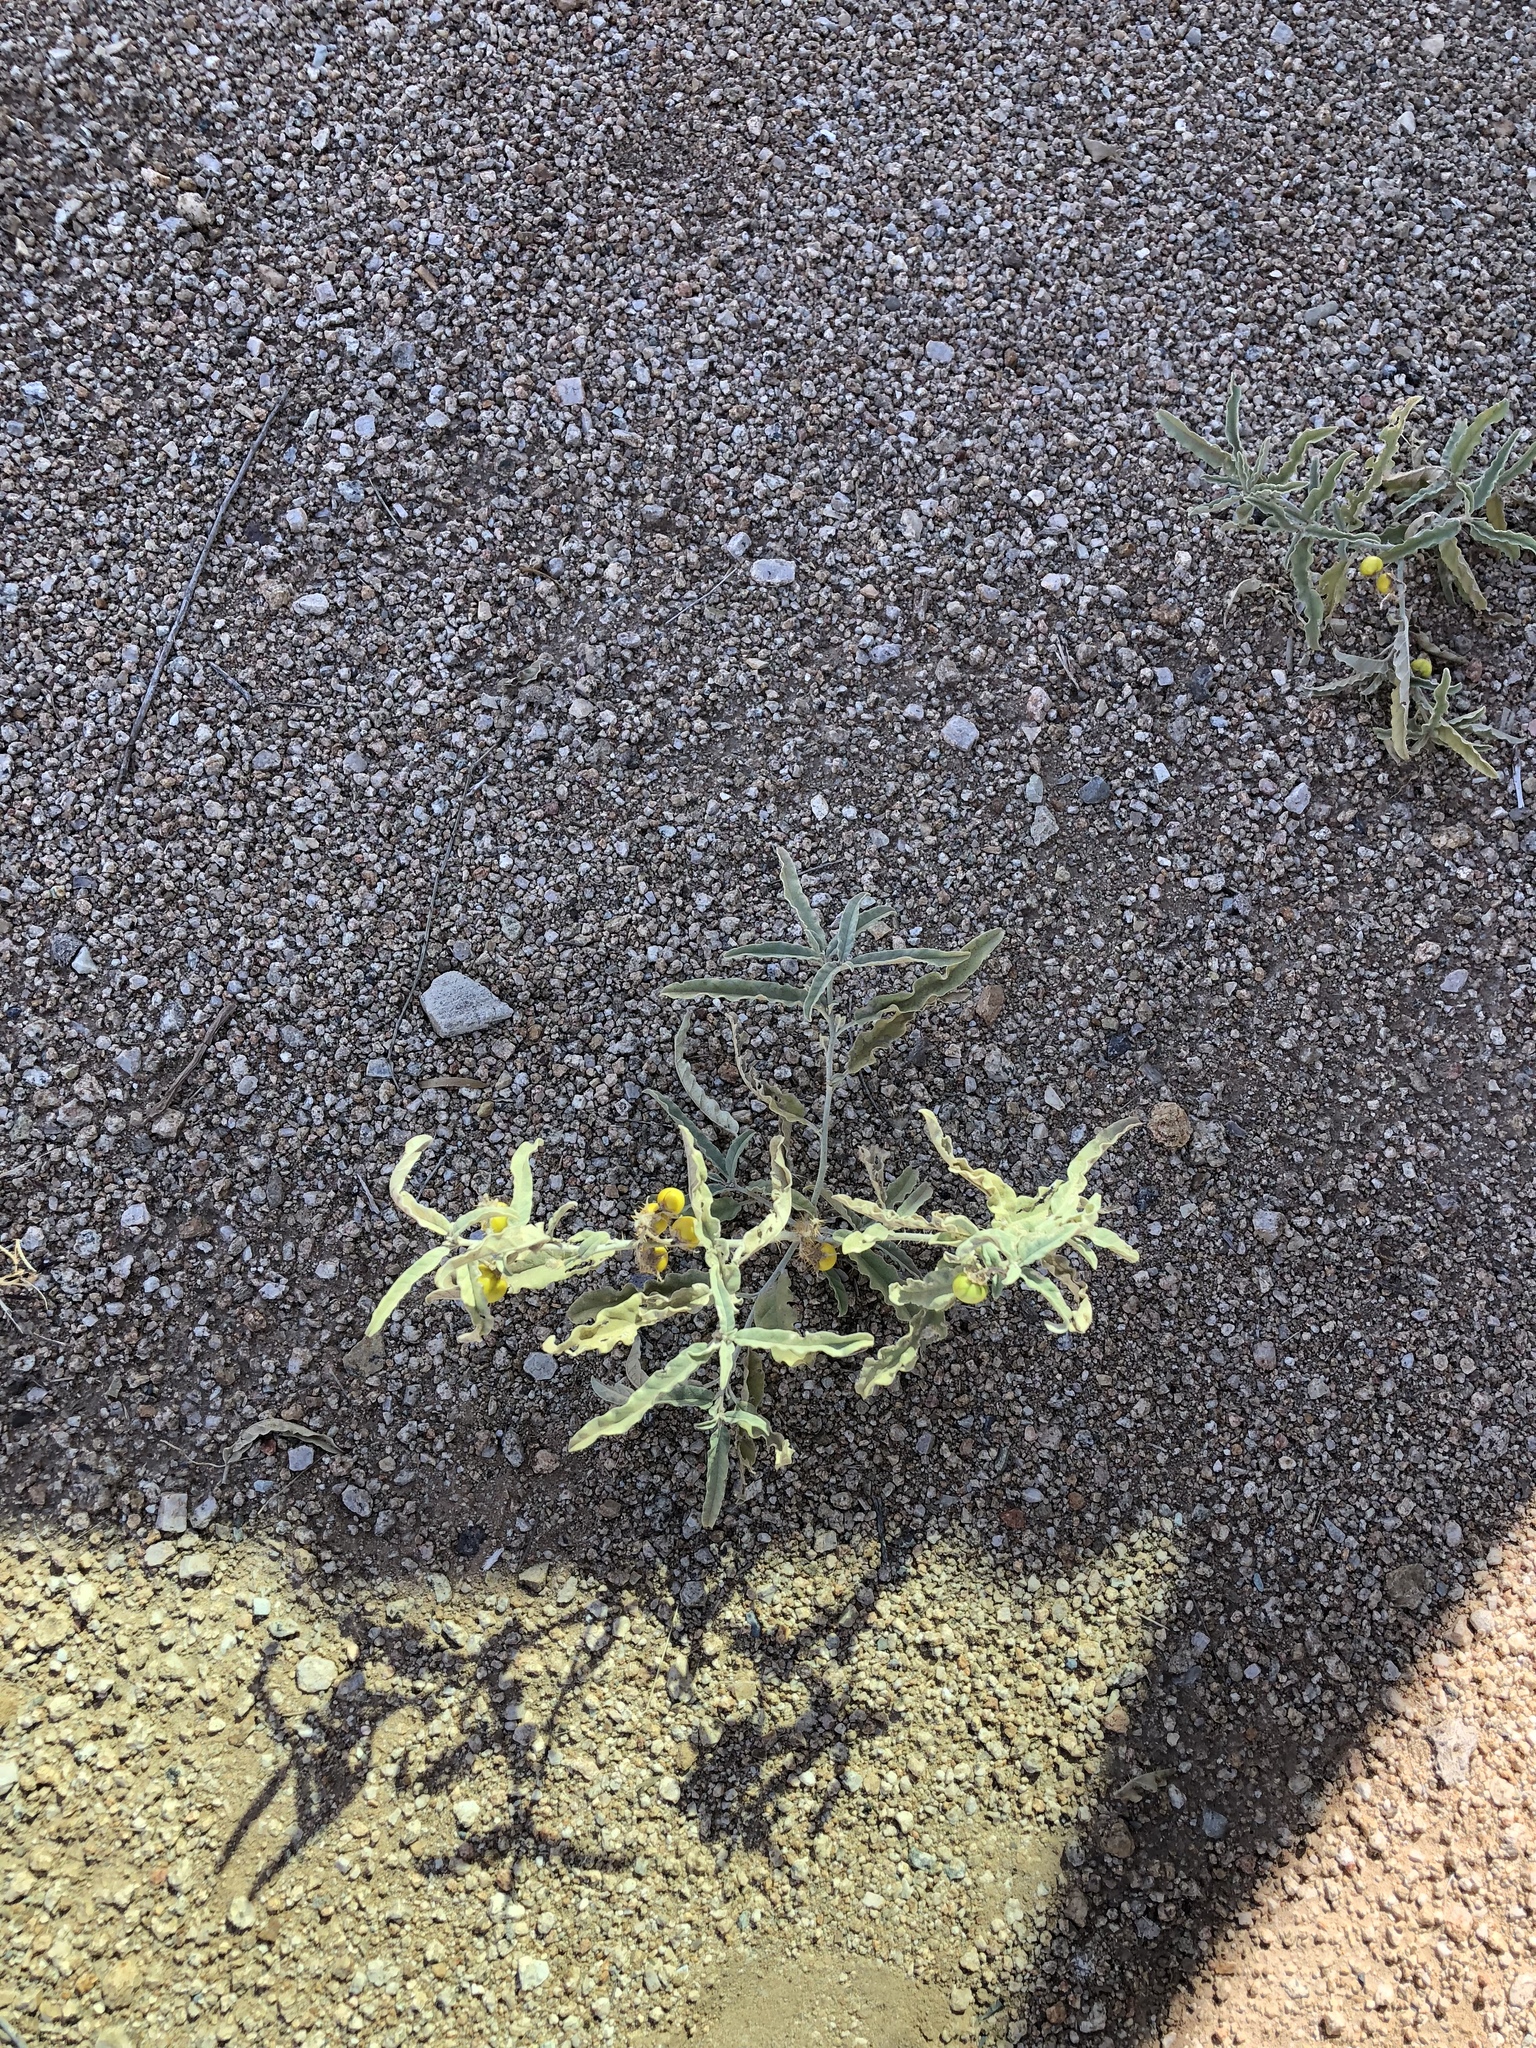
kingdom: Plantae
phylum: Tracheophyta
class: Magnoliopsida
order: Solanales
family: Solanaceae
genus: Solanum
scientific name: Solanum elaeagnifolium
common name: Silverleaf nightshade
